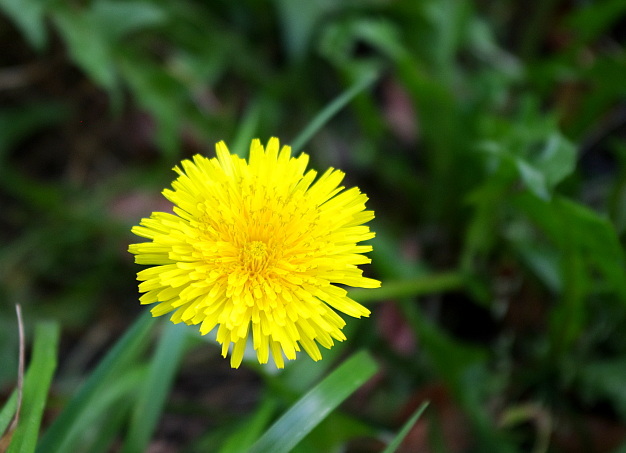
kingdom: Plantae
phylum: Tracheophyta
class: Magnoliopsida
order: Asterales
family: Asteraceae
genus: Taraxacum
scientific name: Taraxacum officinale
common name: Common dandelion
